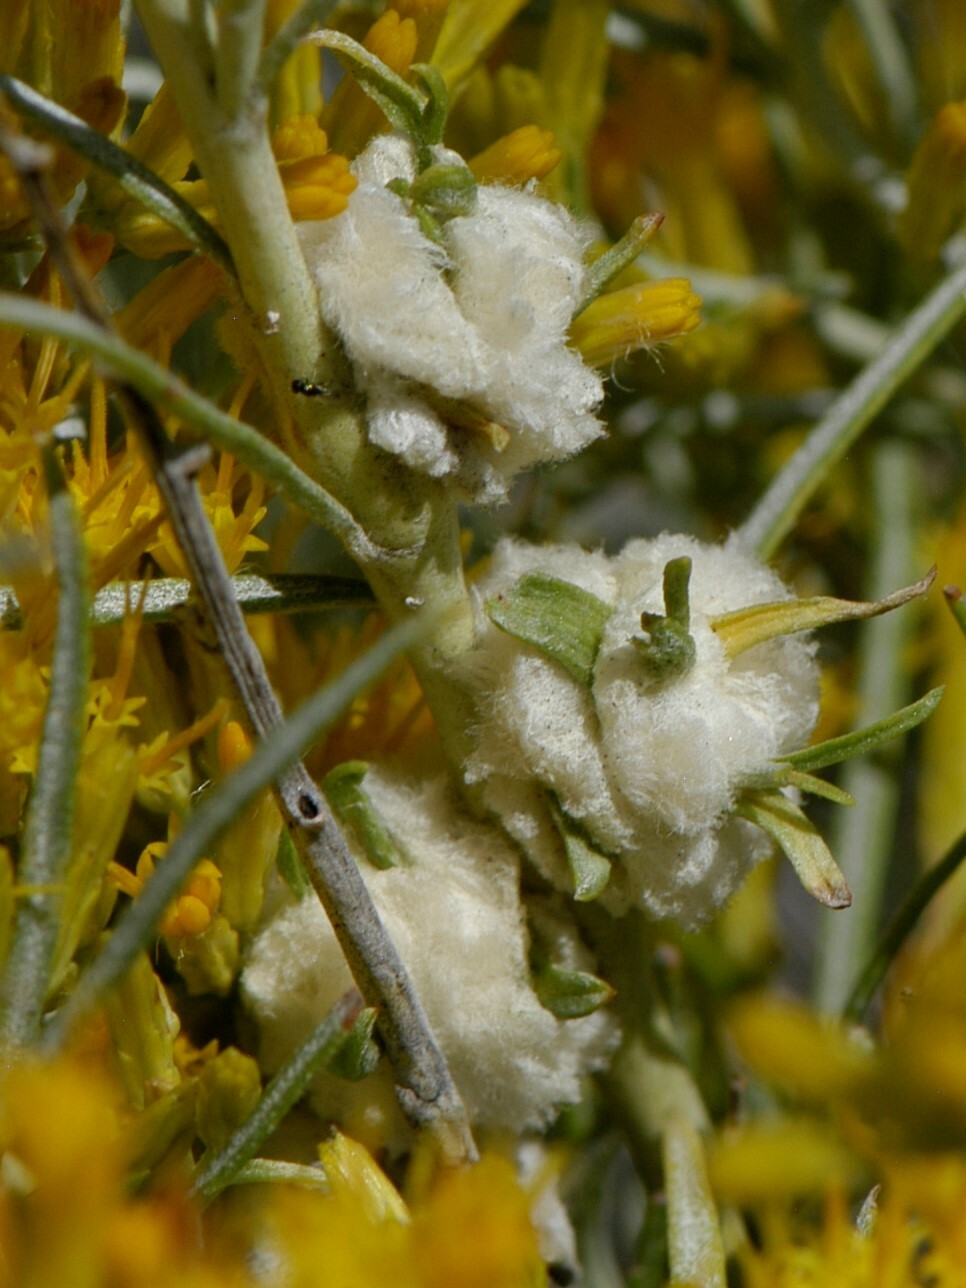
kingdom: Animalia
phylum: Arthropoda
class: Insecta
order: Diptera
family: Tephritidae
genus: Aciurina
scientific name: Aciurina bigeloviae
